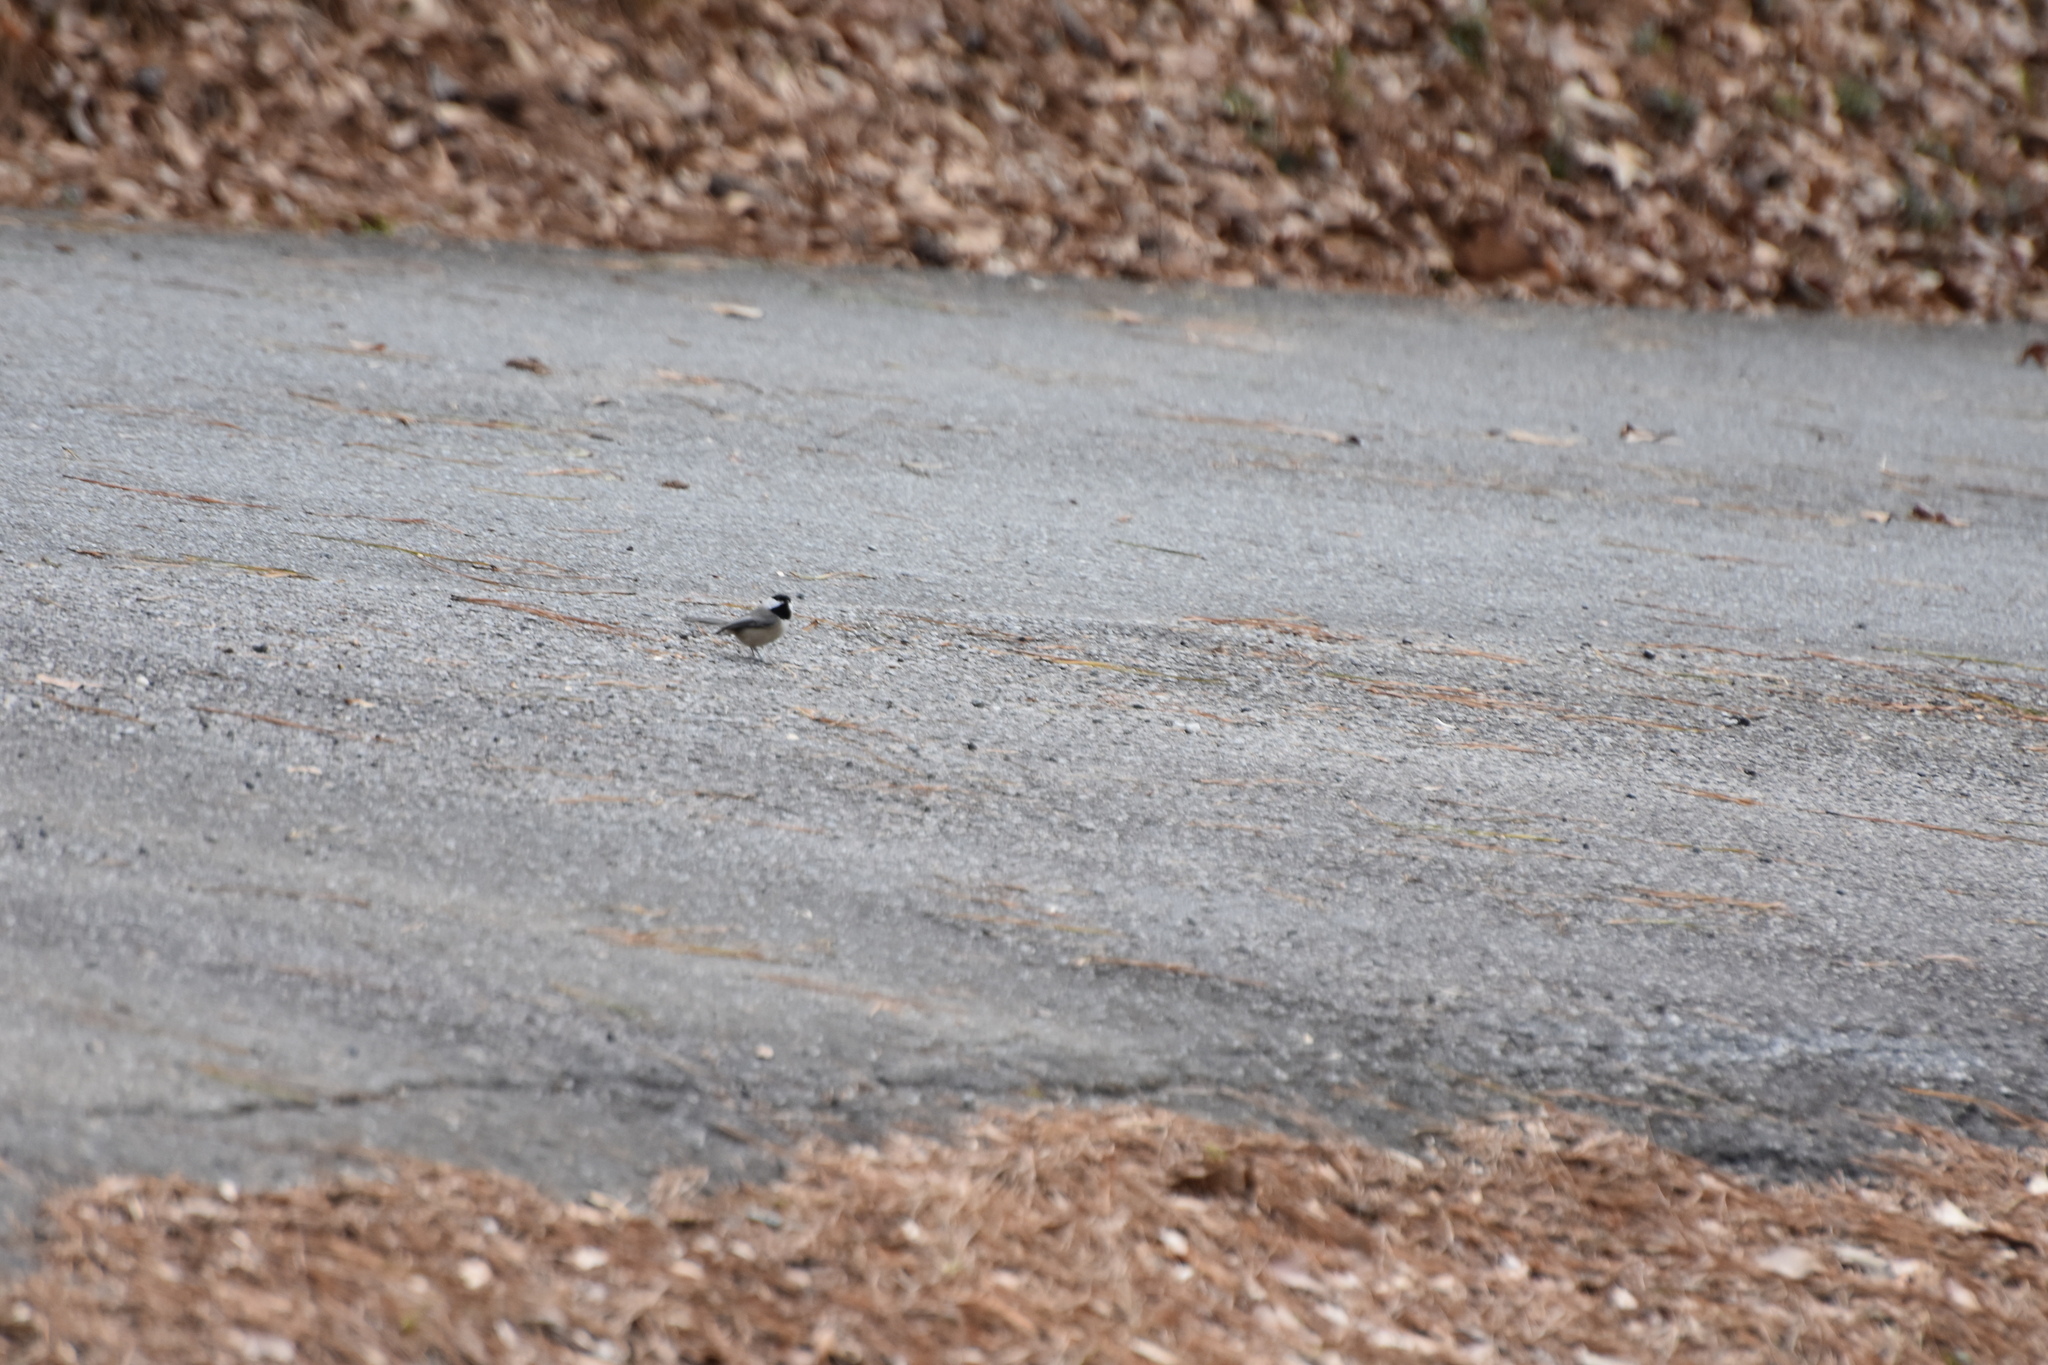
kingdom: Animalia
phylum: Chordata
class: Aves
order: Passeriformes
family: Paridae
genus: Poecile
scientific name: Poecile carolinensis
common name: Carolina chickadee
